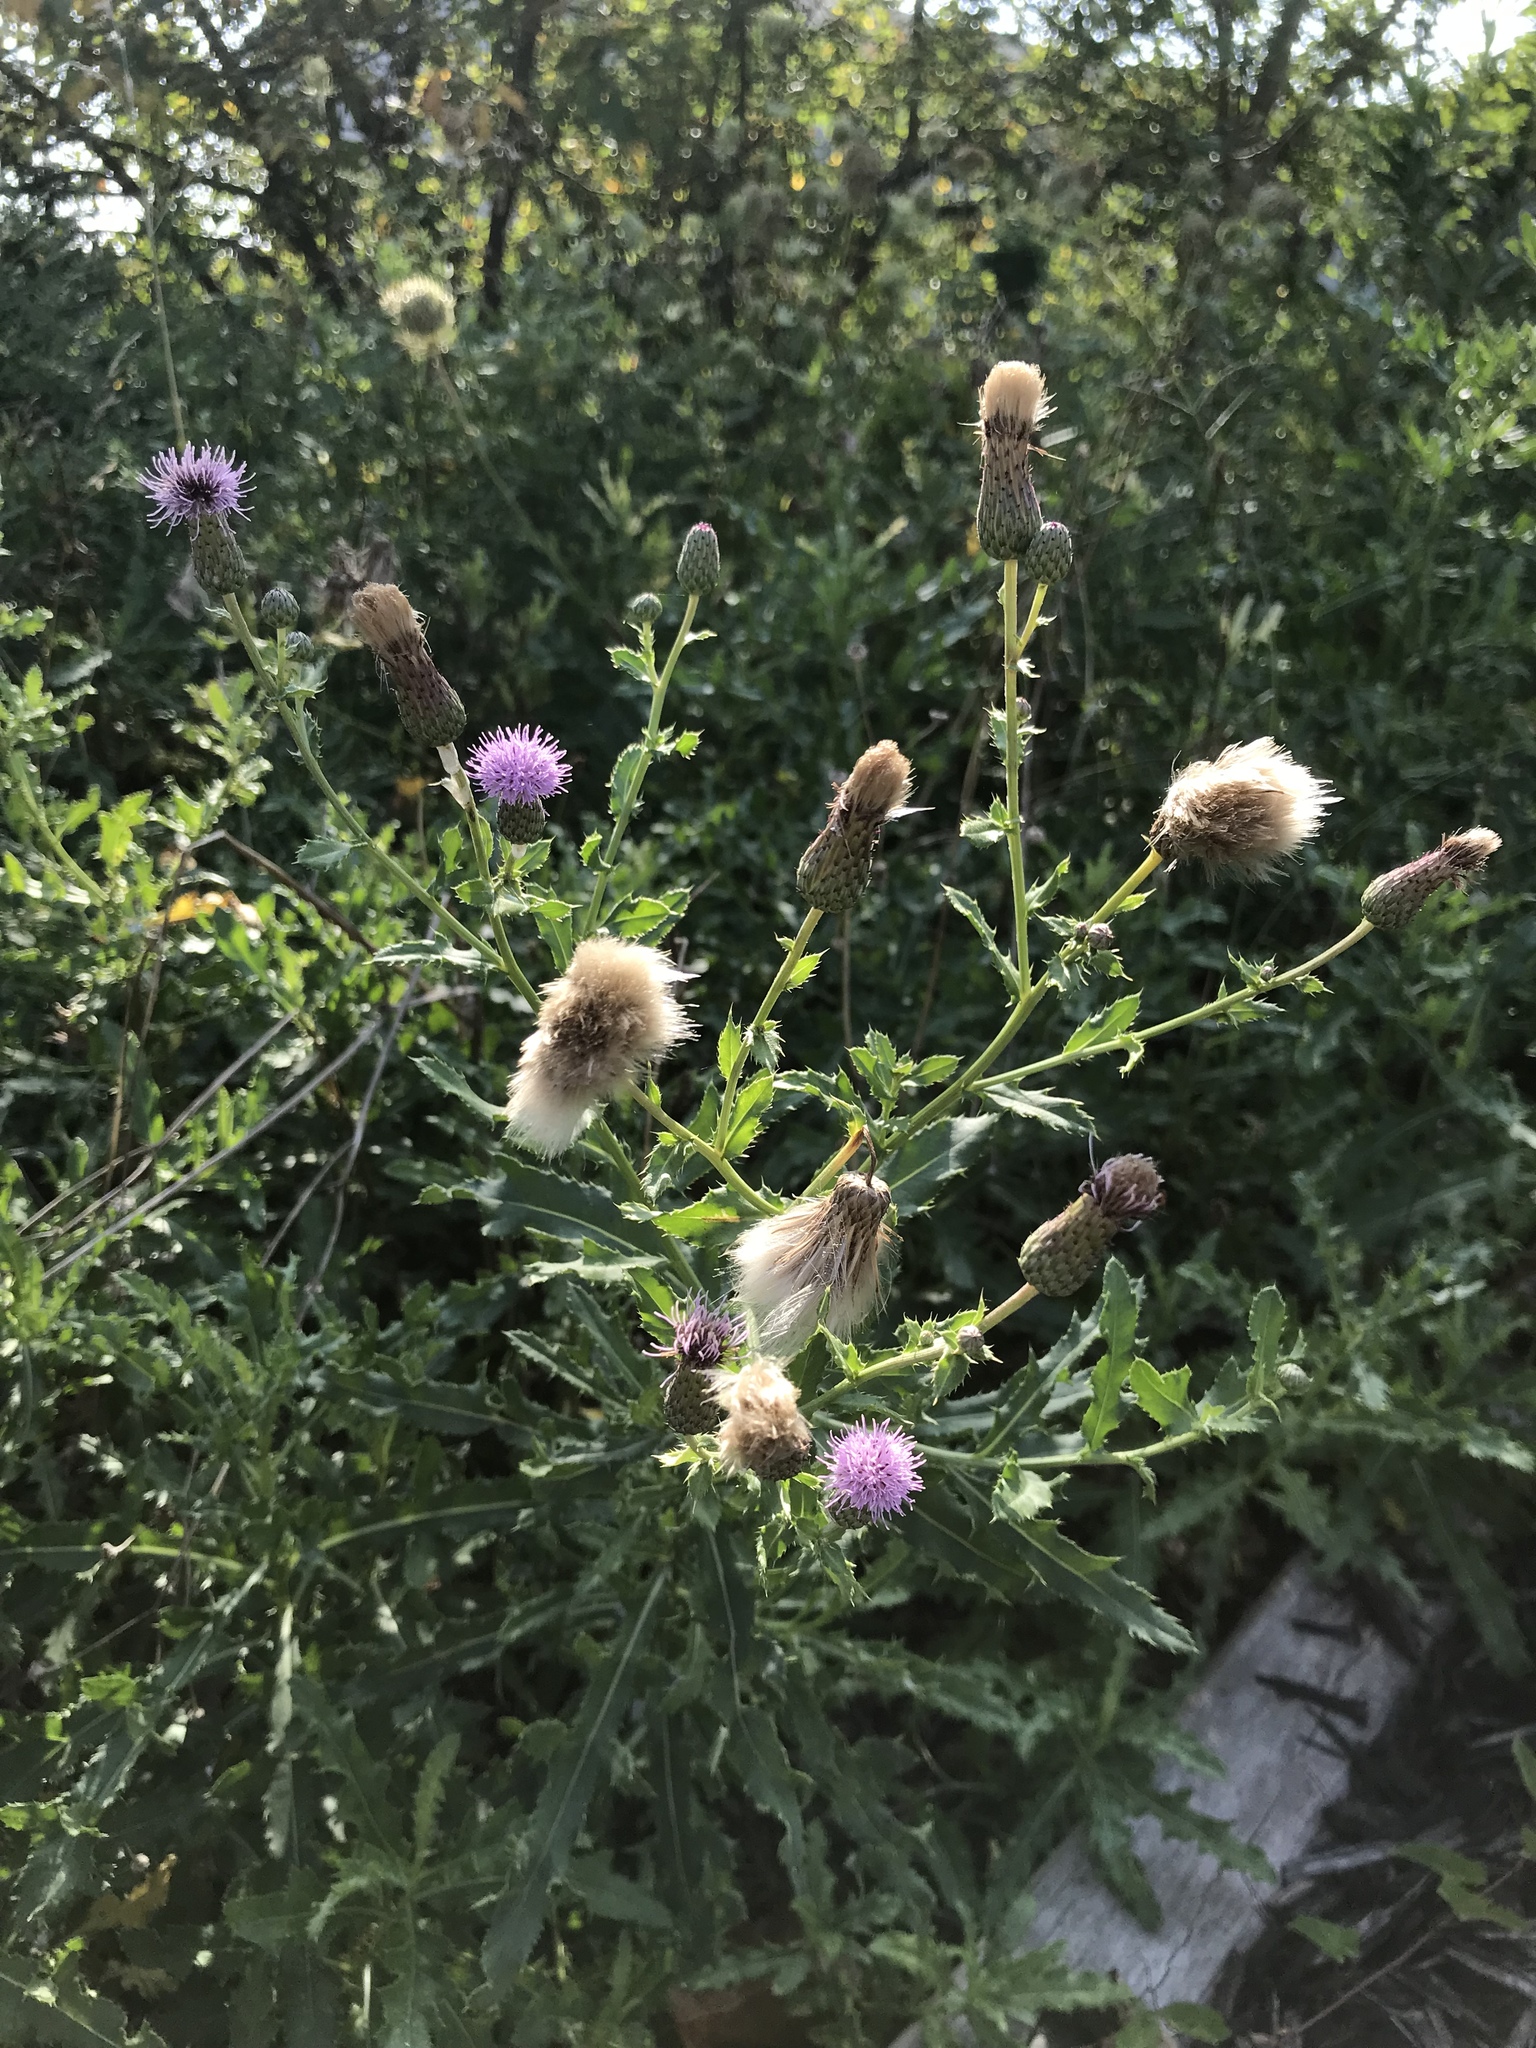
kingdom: Plantae
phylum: Tracheophyta
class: Magnoliopsida
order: Asterales
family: Asteraceae
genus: Cirsium
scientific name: Cirsium arvense
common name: Creeping thistle
